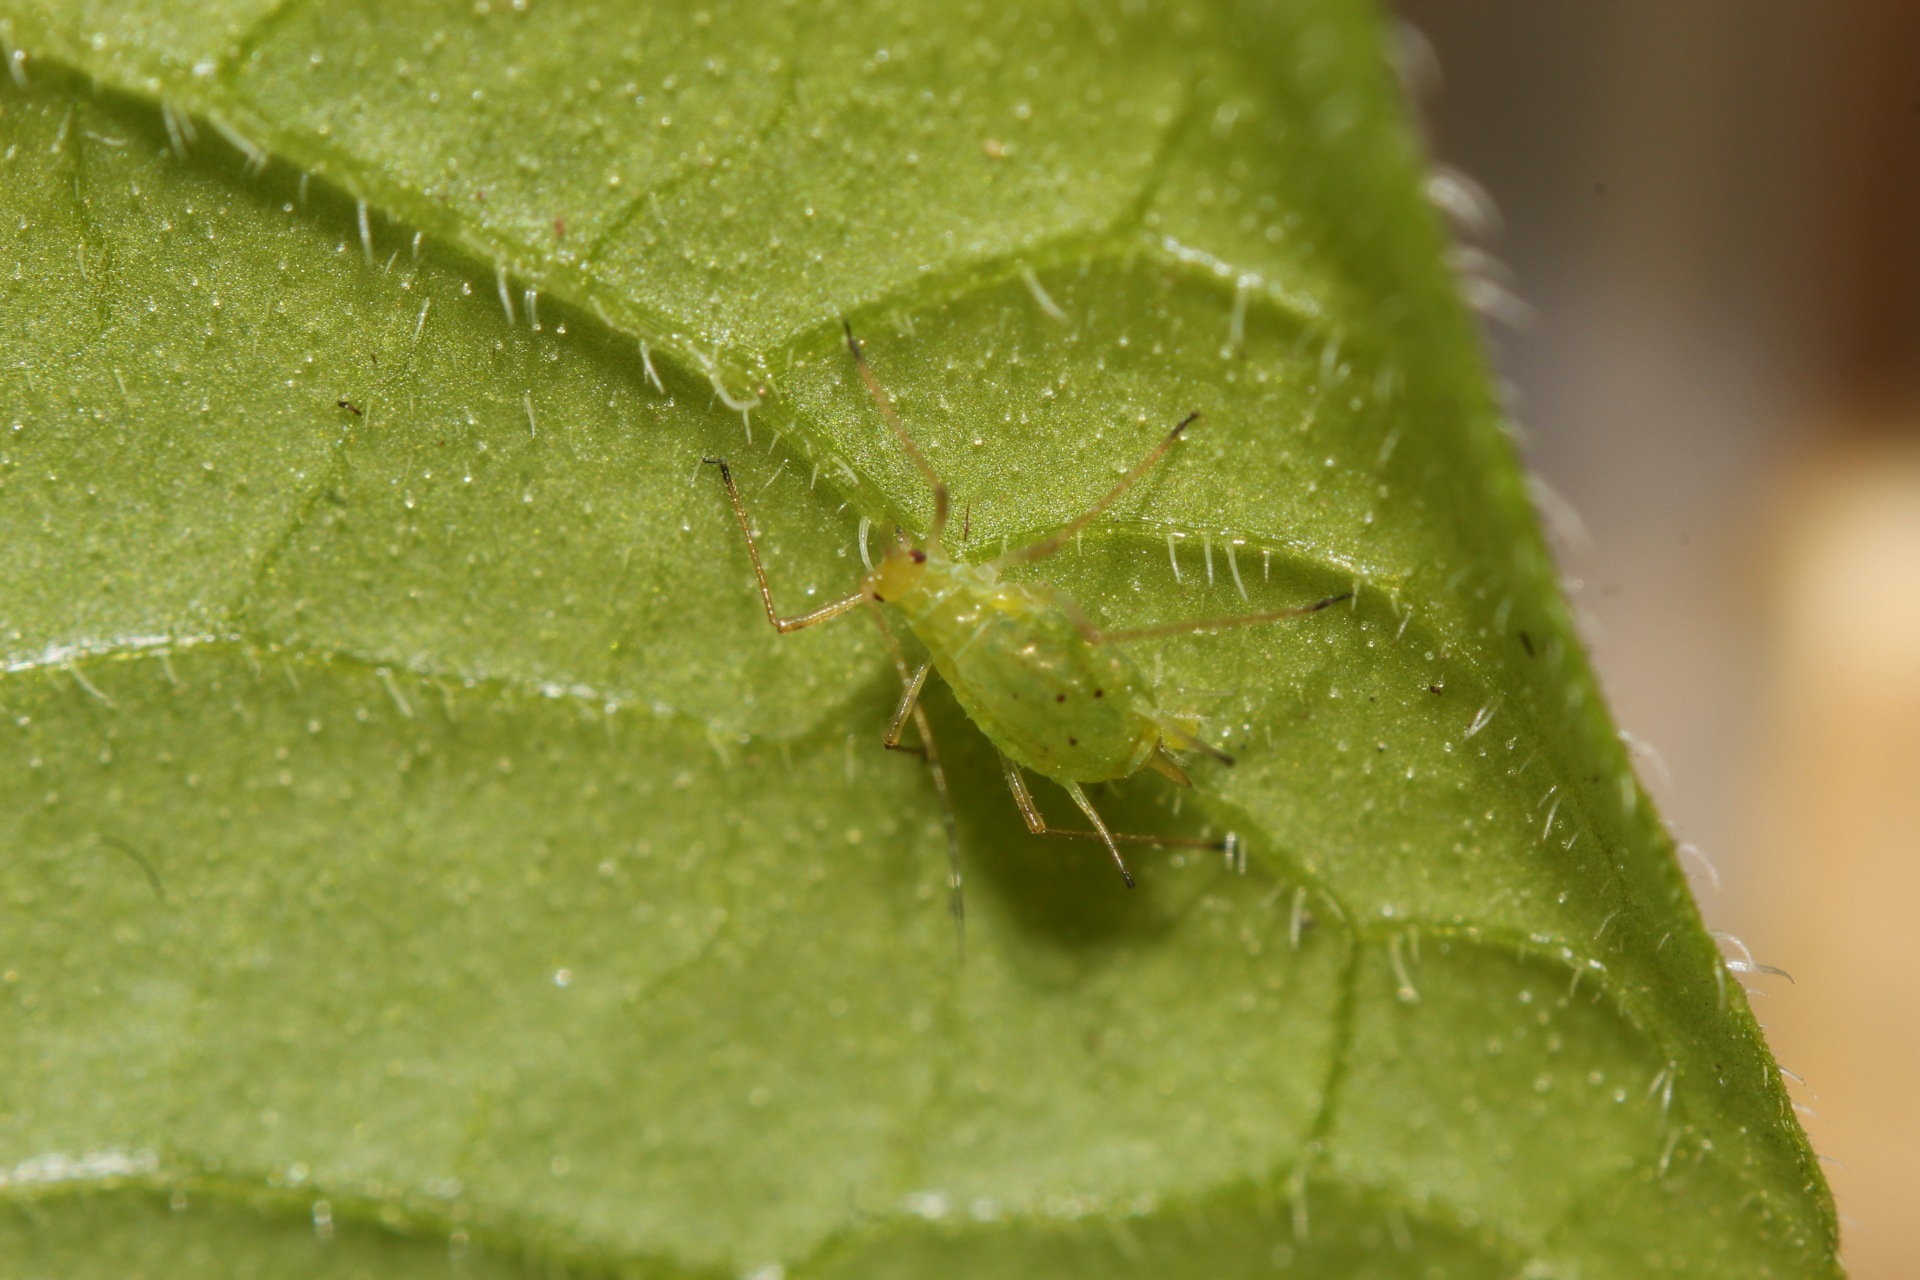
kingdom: Animalia
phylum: Arthropoda
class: Insecta
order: Hemiptera
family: Aphididae
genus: Macrosiphum
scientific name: Macrosiphum euphorbiae
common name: Potato aphid
